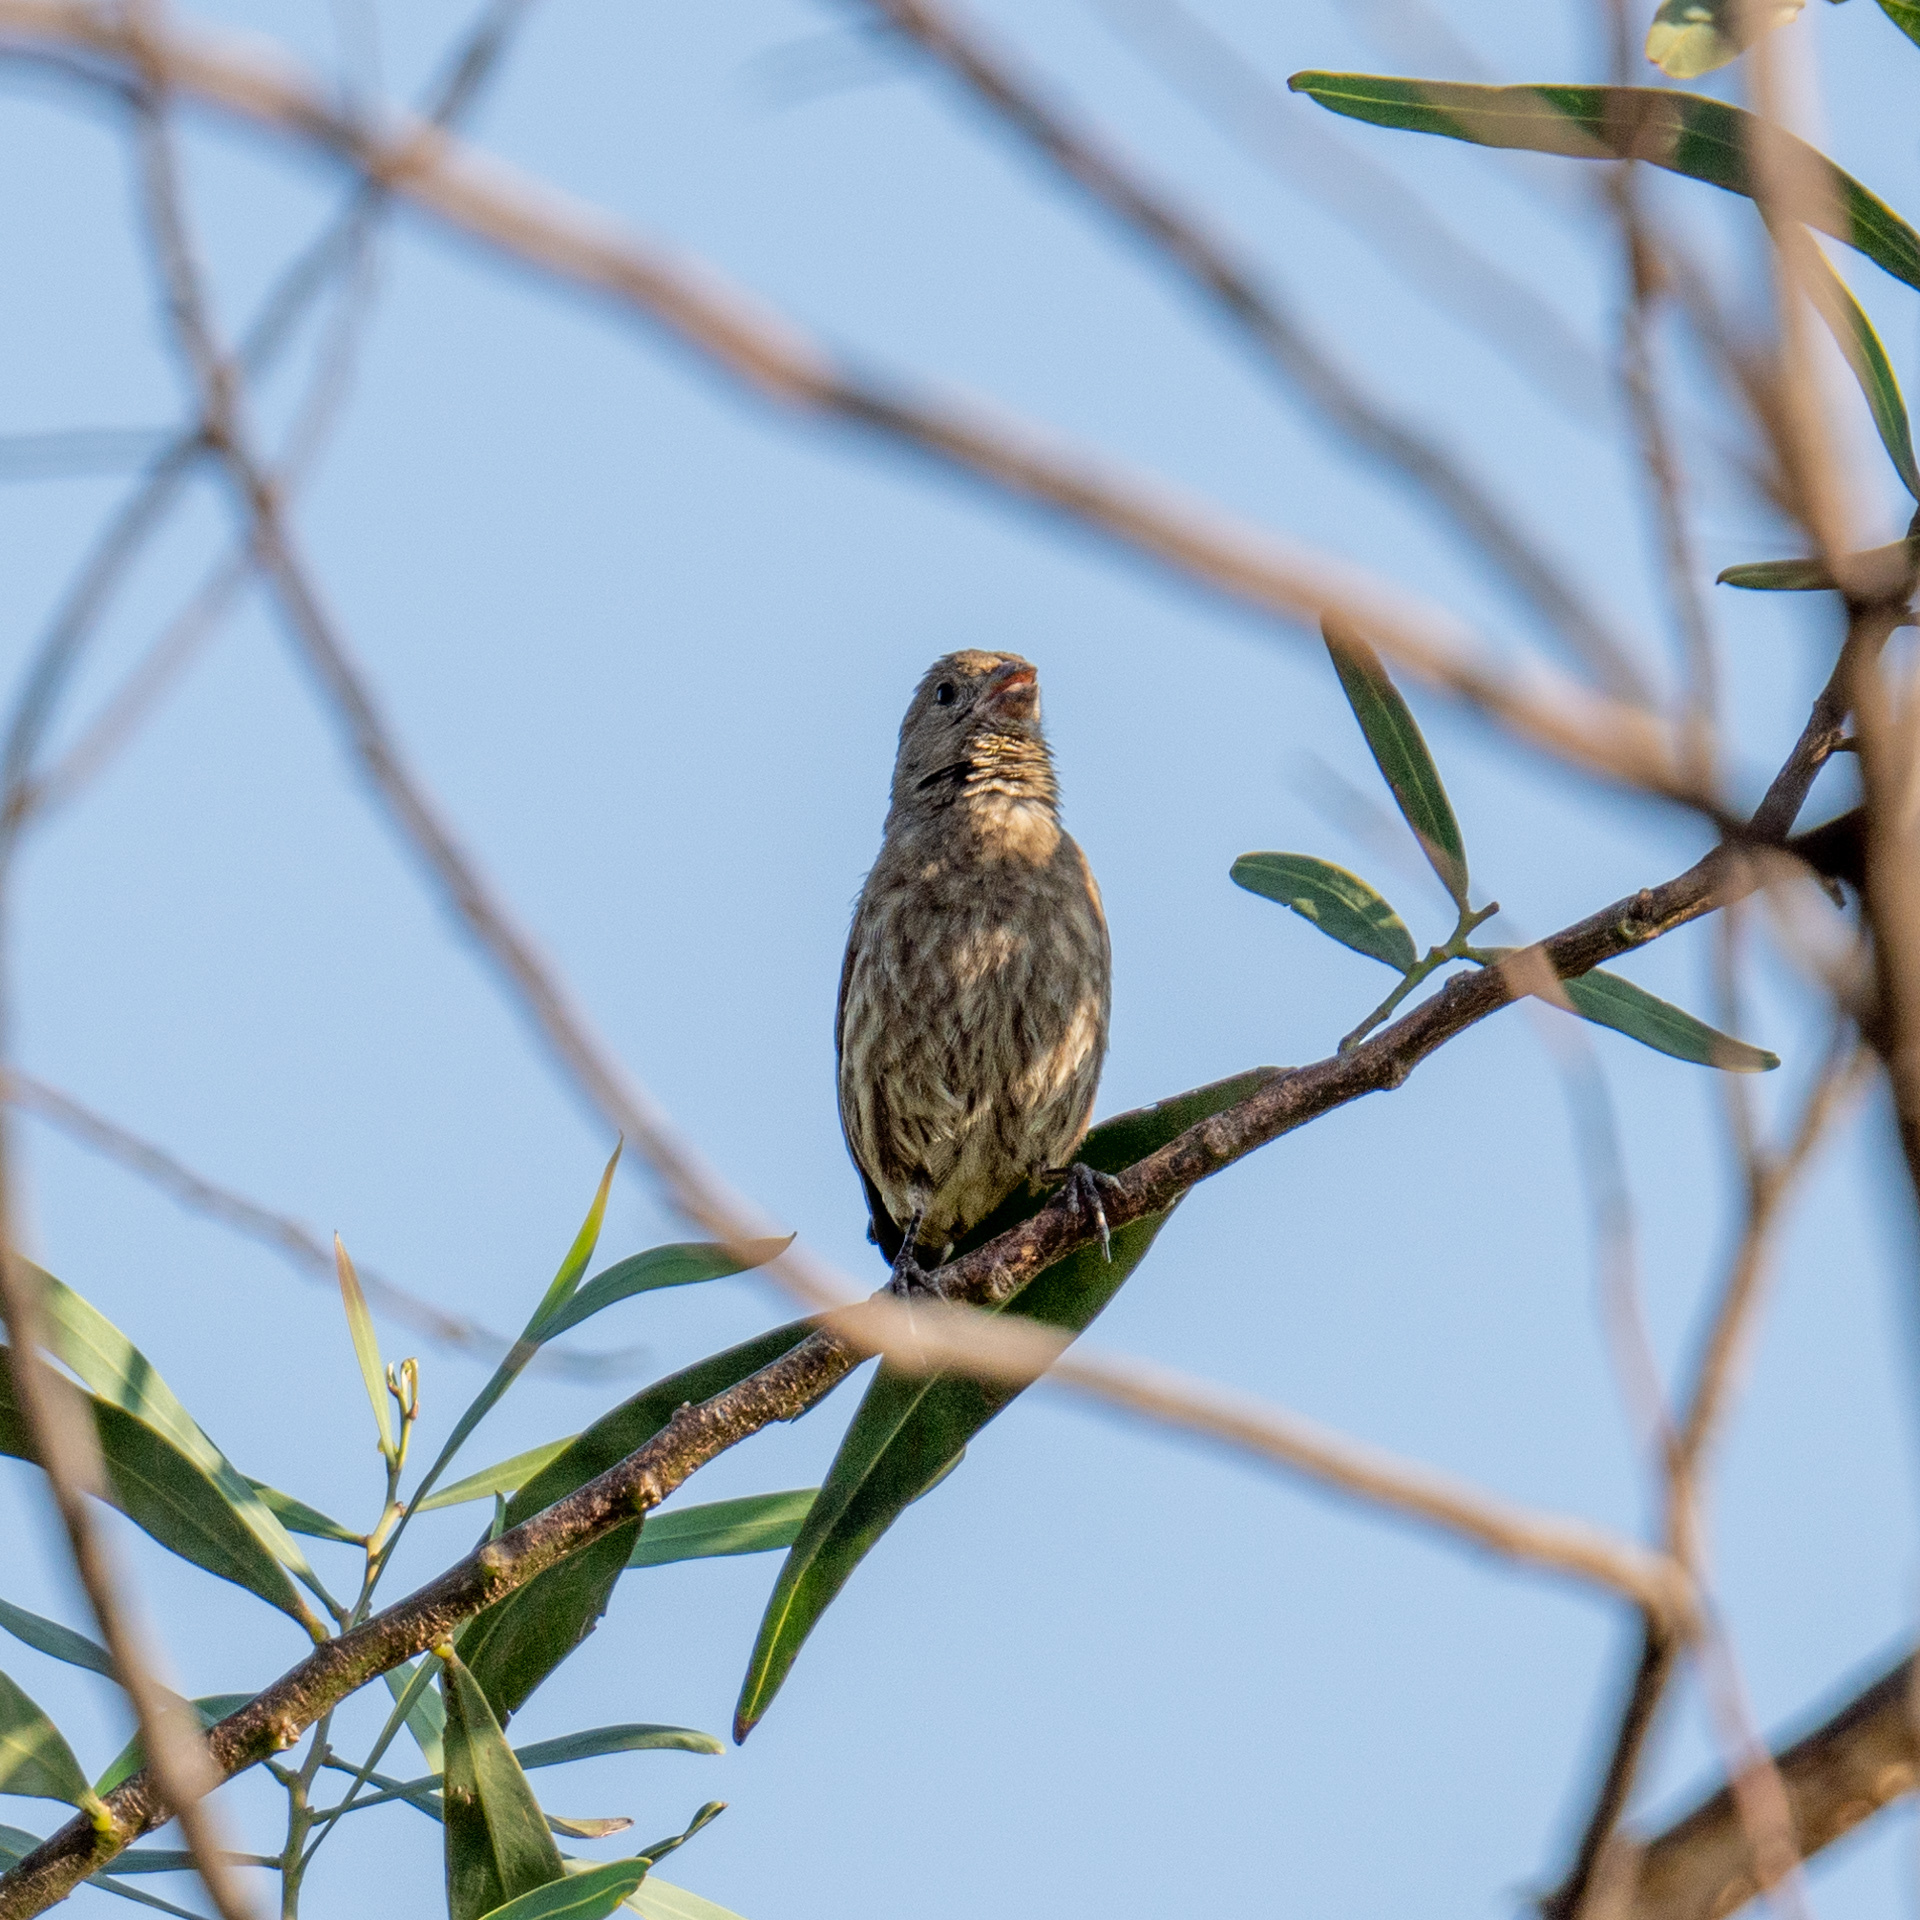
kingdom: Animalia
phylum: Chordata
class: Aves
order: Passeriformes
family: Fringillidae
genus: Haemorhous
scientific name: Haemorhous mexicanus
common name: House finch
